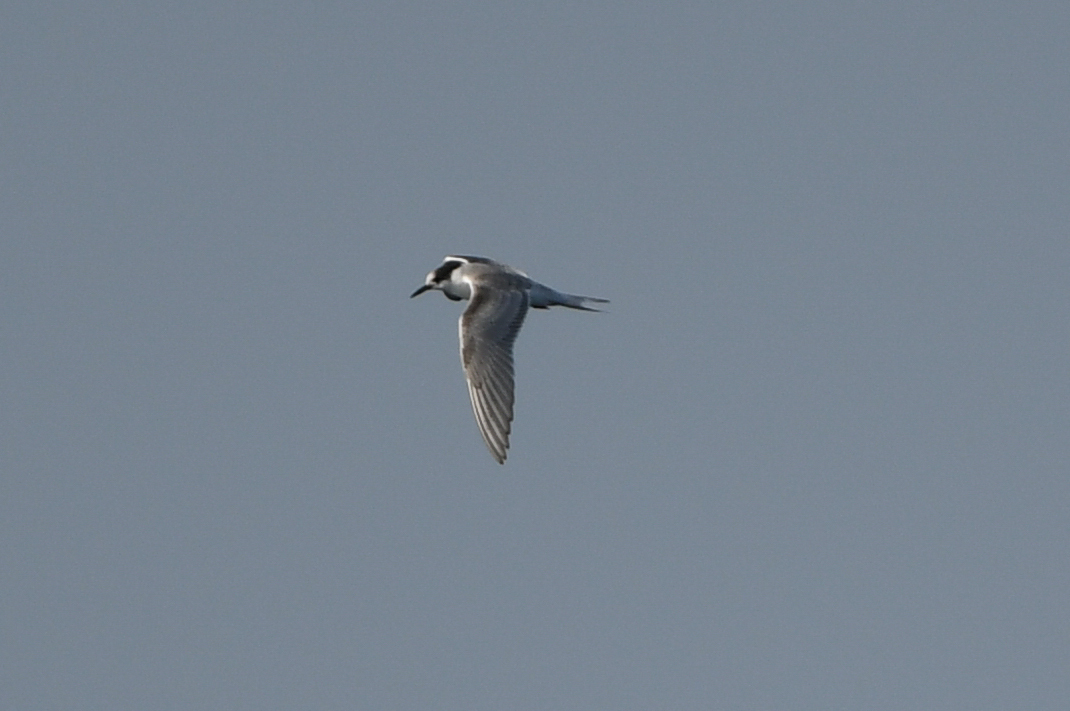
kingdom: Animalia
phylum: Chordata
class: Aves
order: Charadriiformes
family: Laridae
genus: Sterna
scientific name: Sterna hirundo
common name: Common tern
